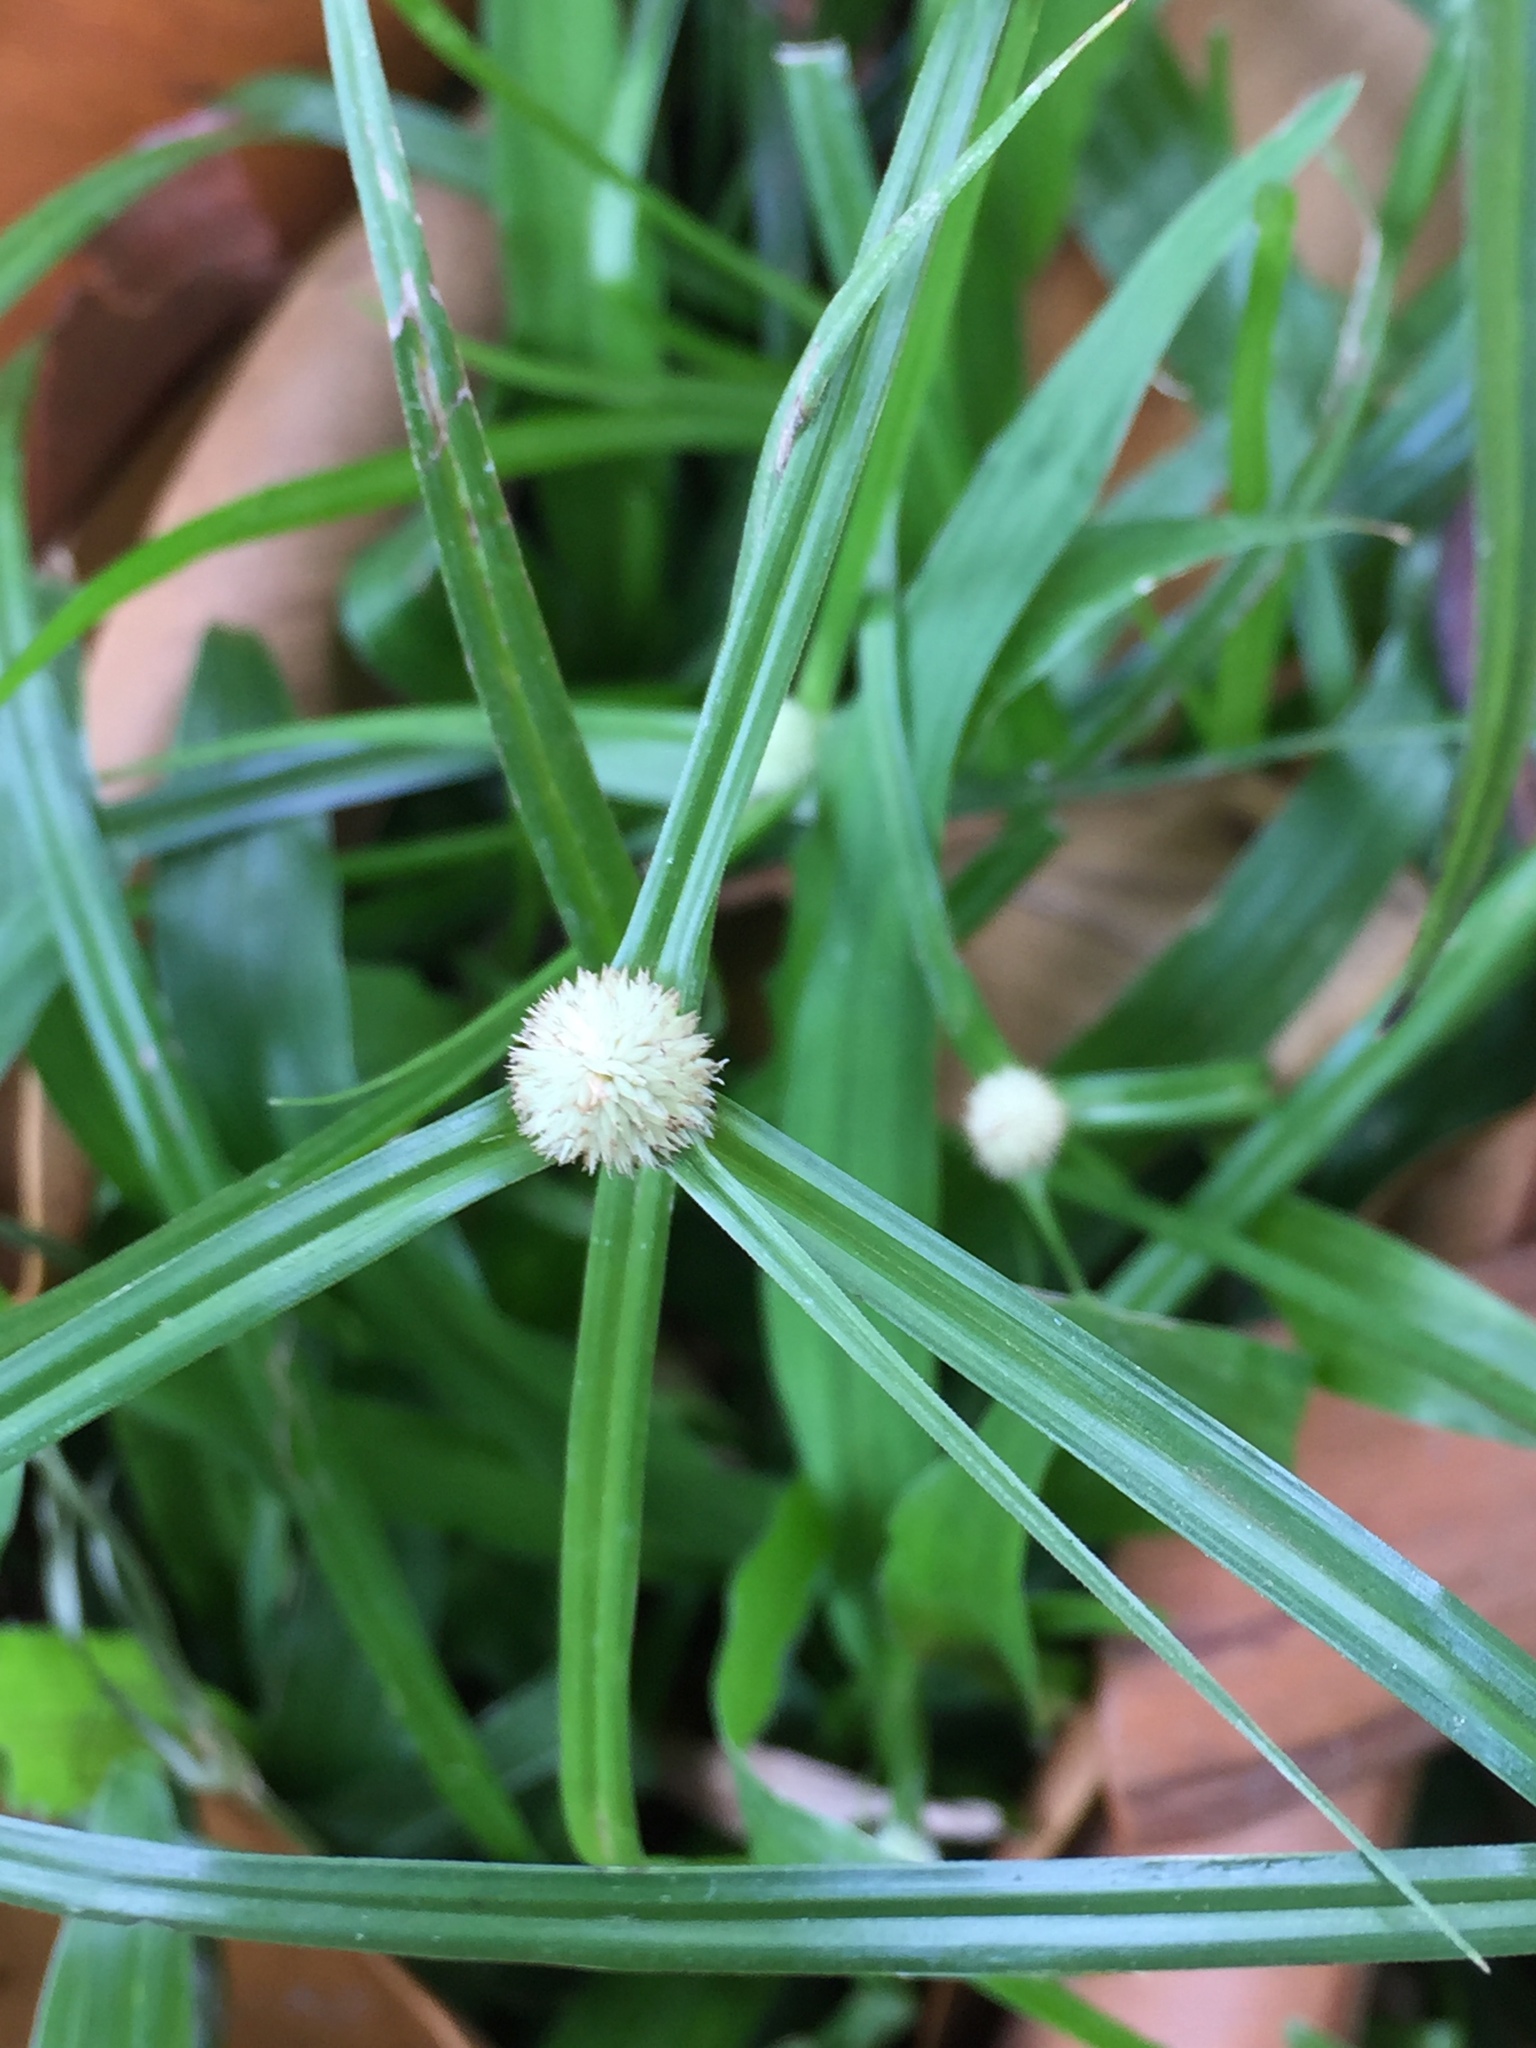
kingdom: Plantae
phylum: Tracheophyta
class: Liliopsida
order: Poales
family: Cyperaceae
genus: Cyperus
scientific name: Cyperus mindorensis
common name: Flatsedge
